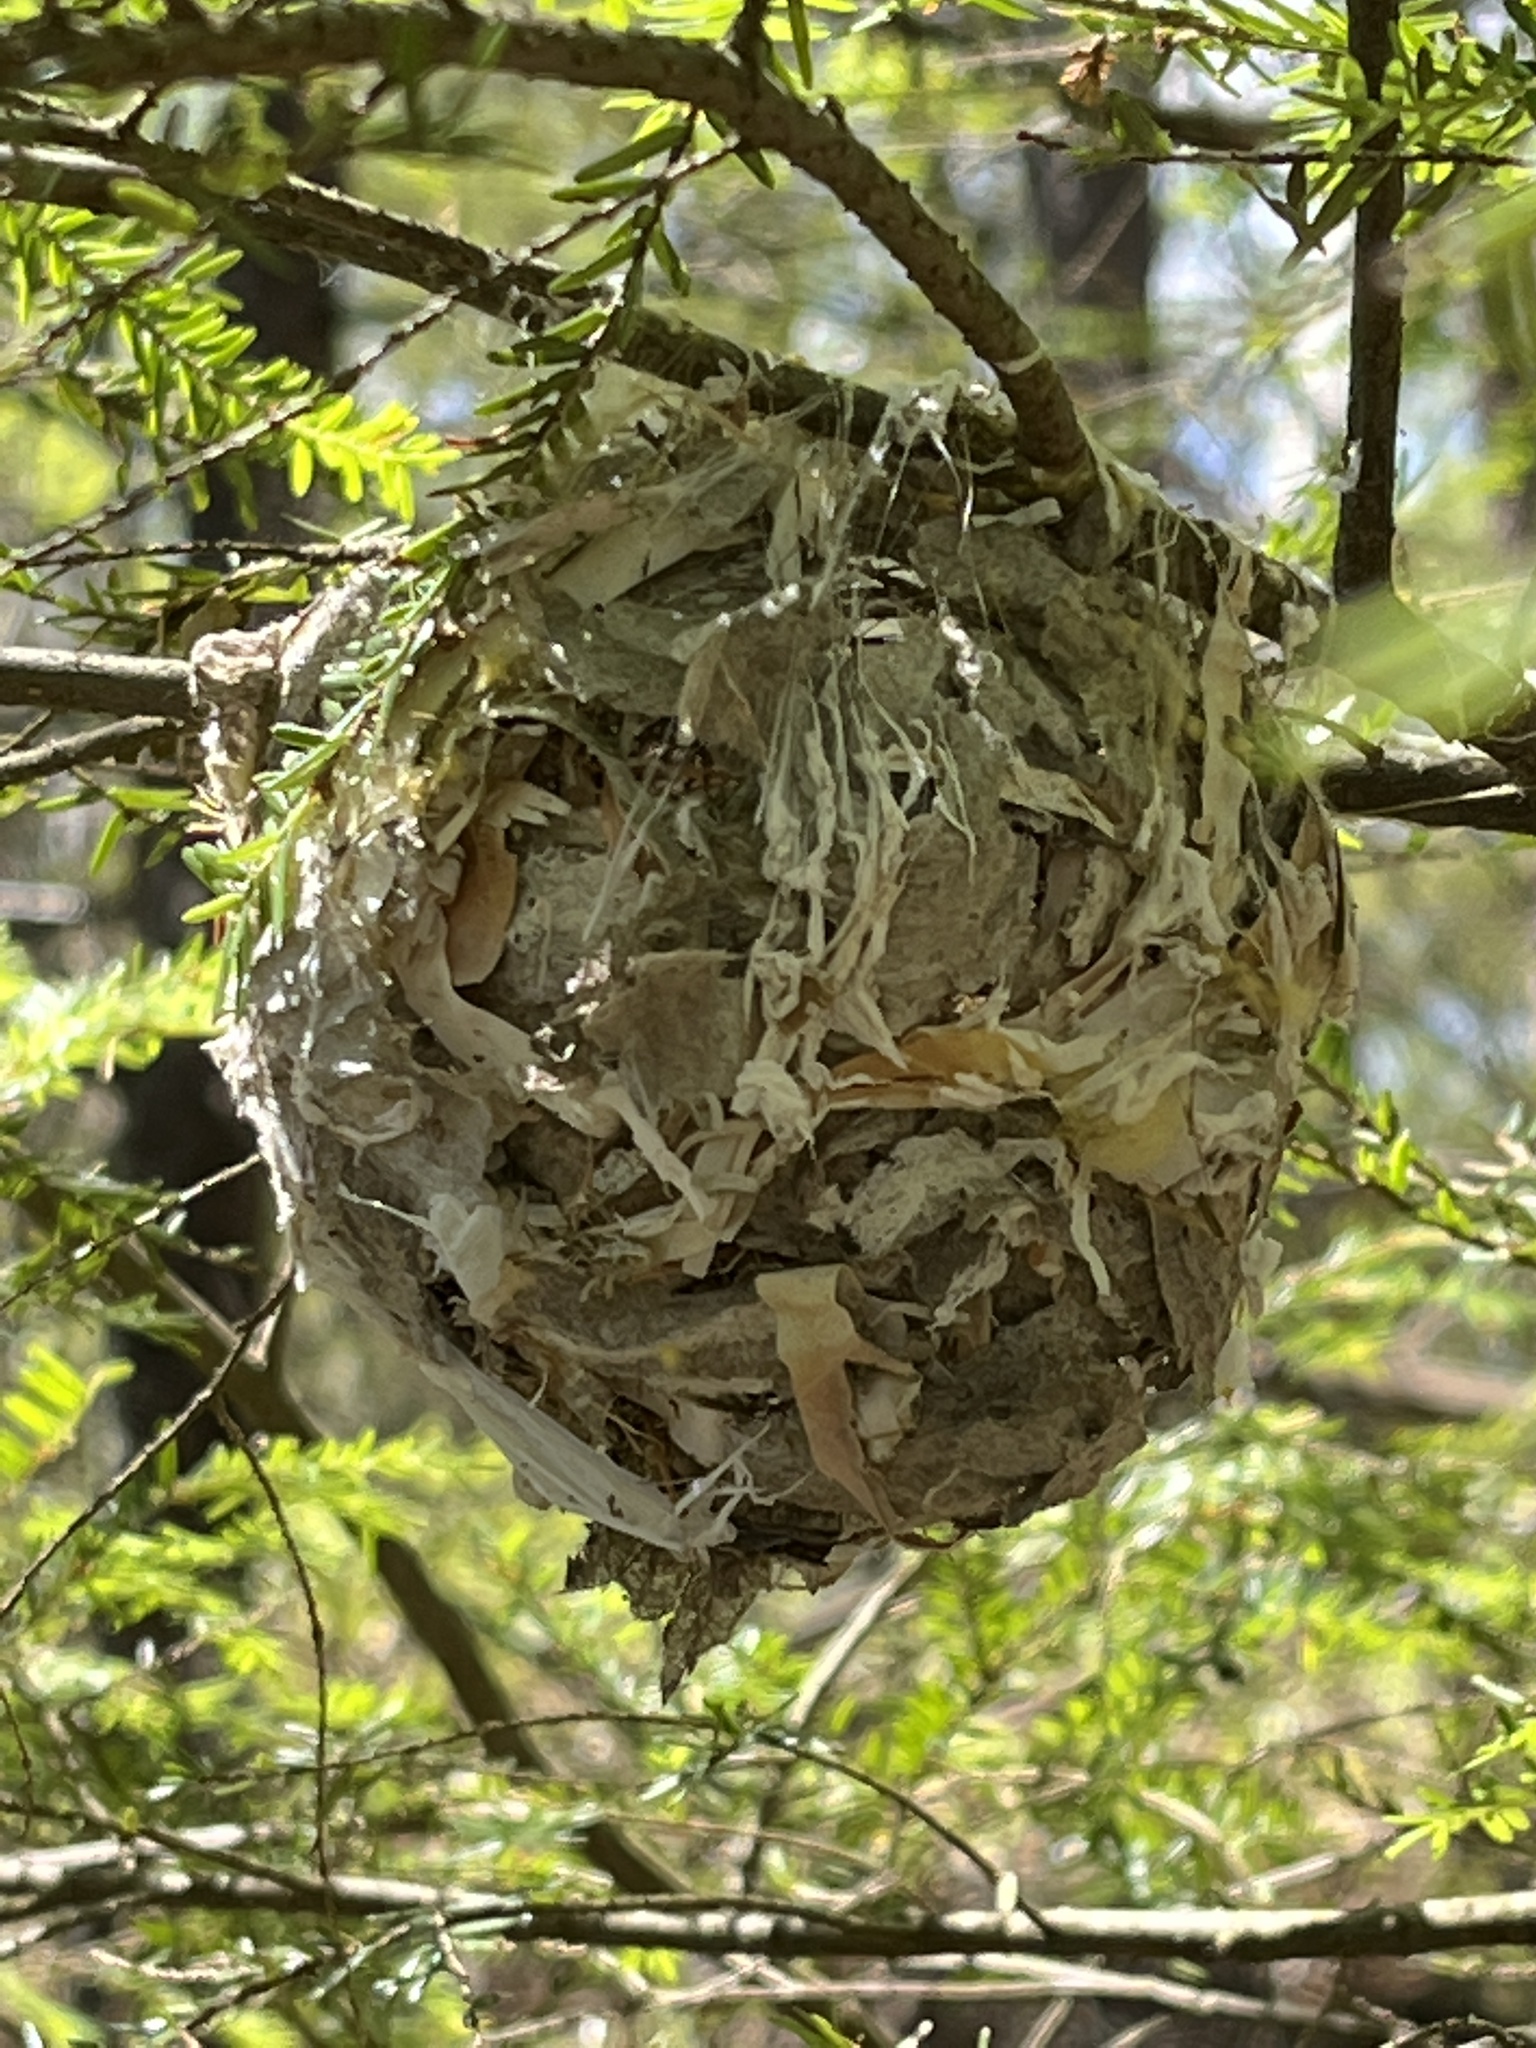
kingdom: Animalia
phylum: Chordata
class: Aves
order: Passeriformes
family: Vireonidae
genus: Vireo
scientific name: Vireo olivaceus
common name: Red-eyed vireo
